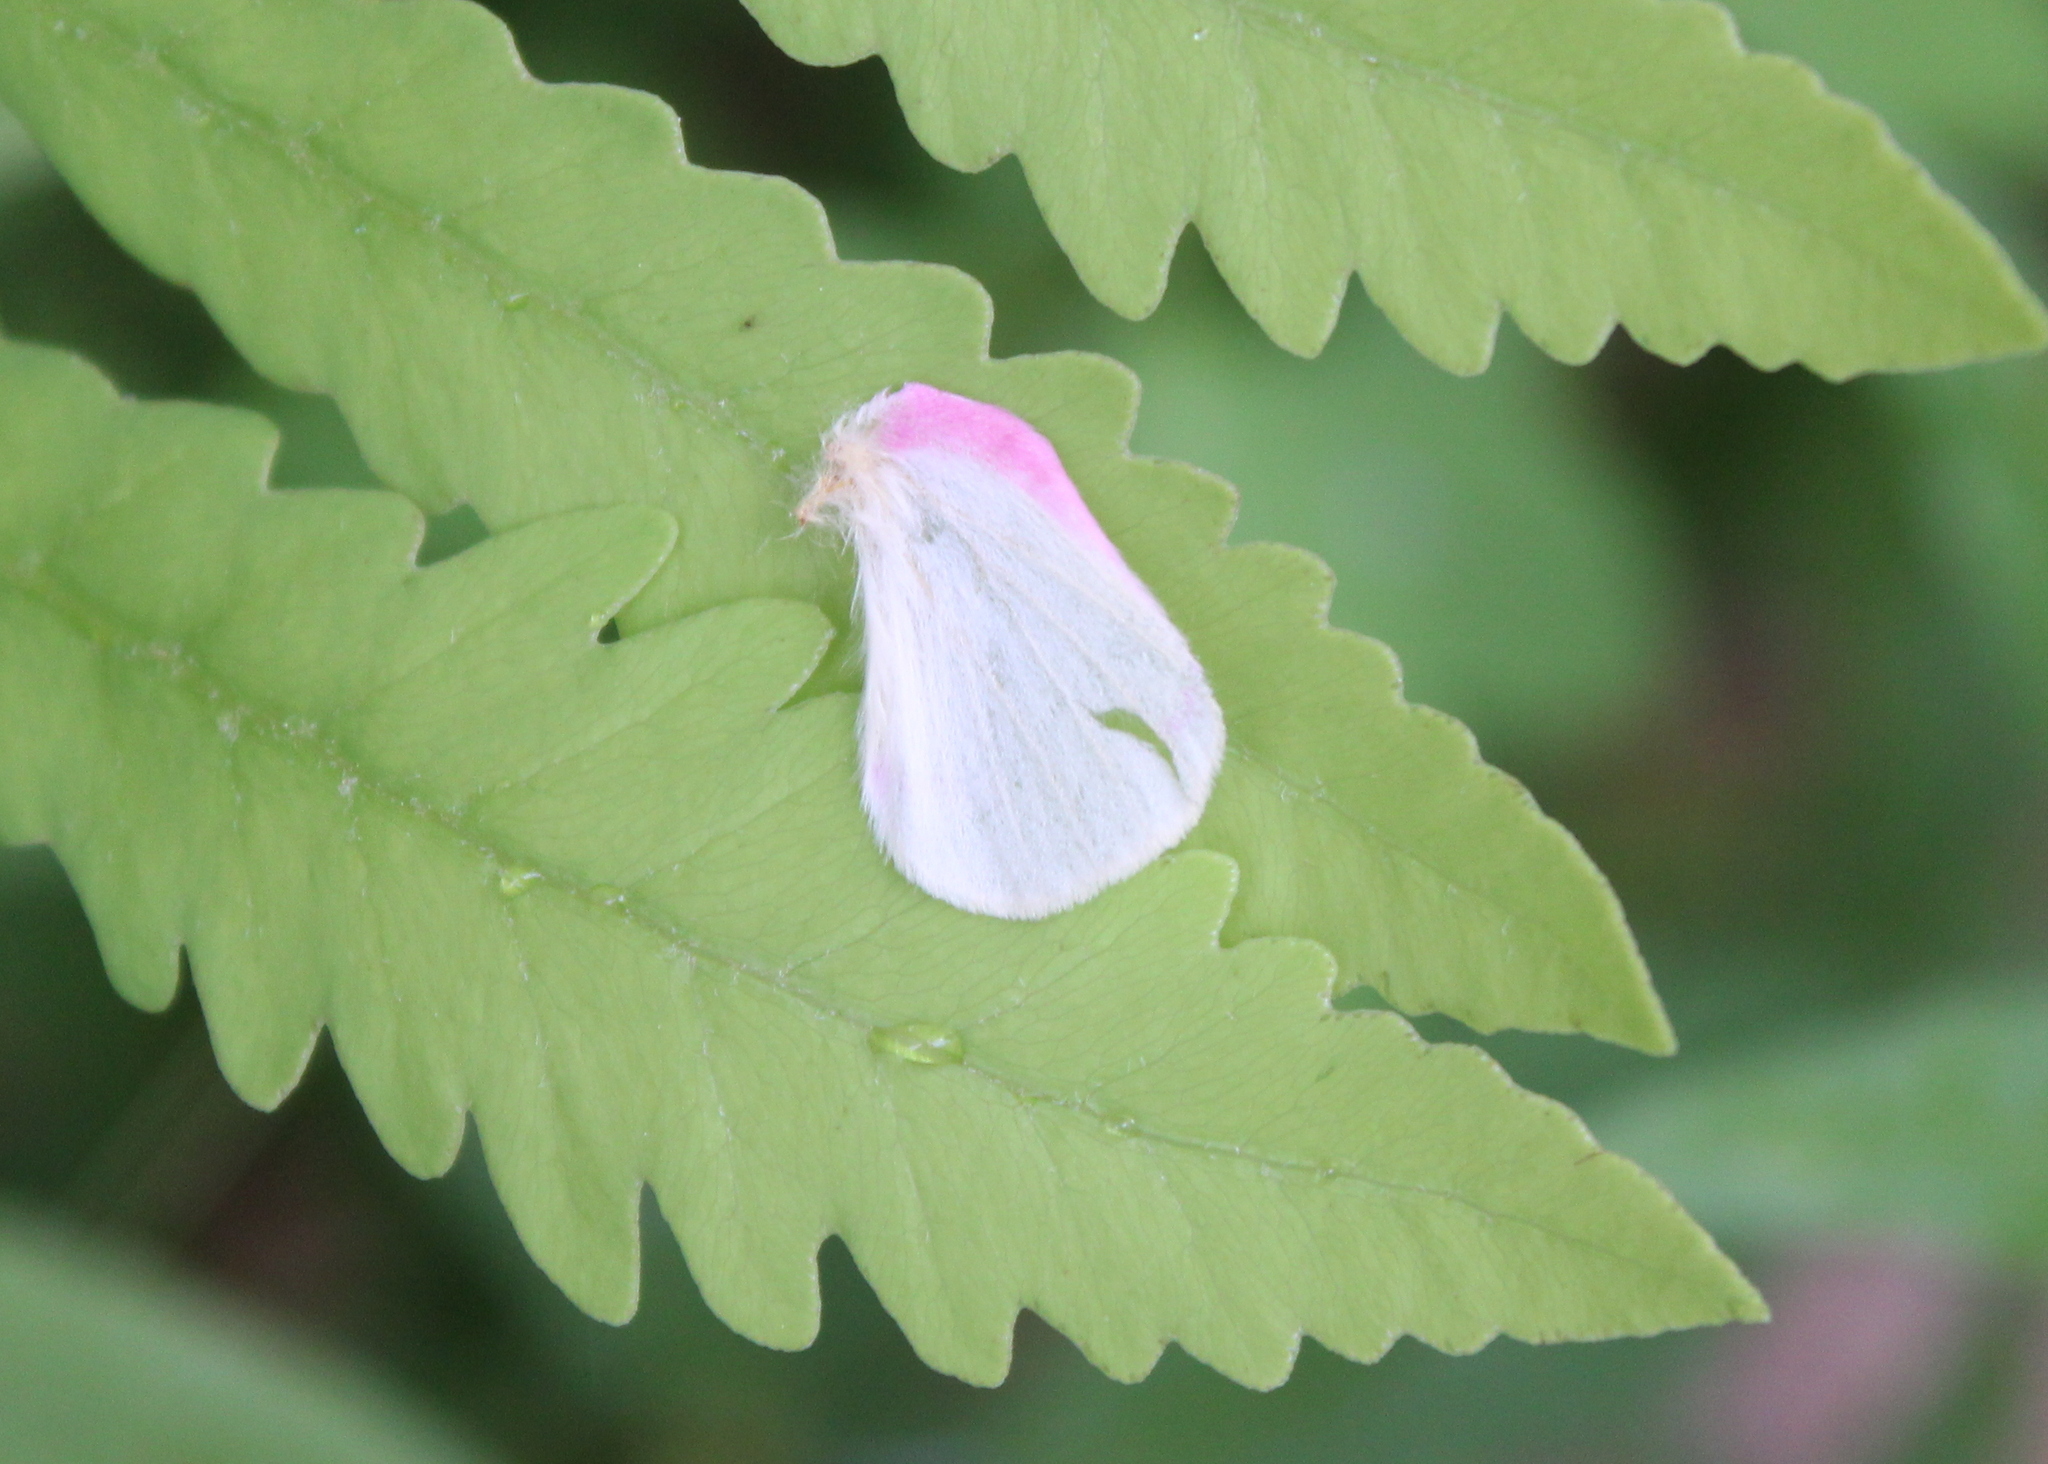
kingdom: Animalia
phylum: Arthropoda
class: Insecta
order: Lepidoptera
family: Saturniidae
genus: Dryocampa
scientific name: Dryocampa rubicunda
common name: Rosy maple moth
